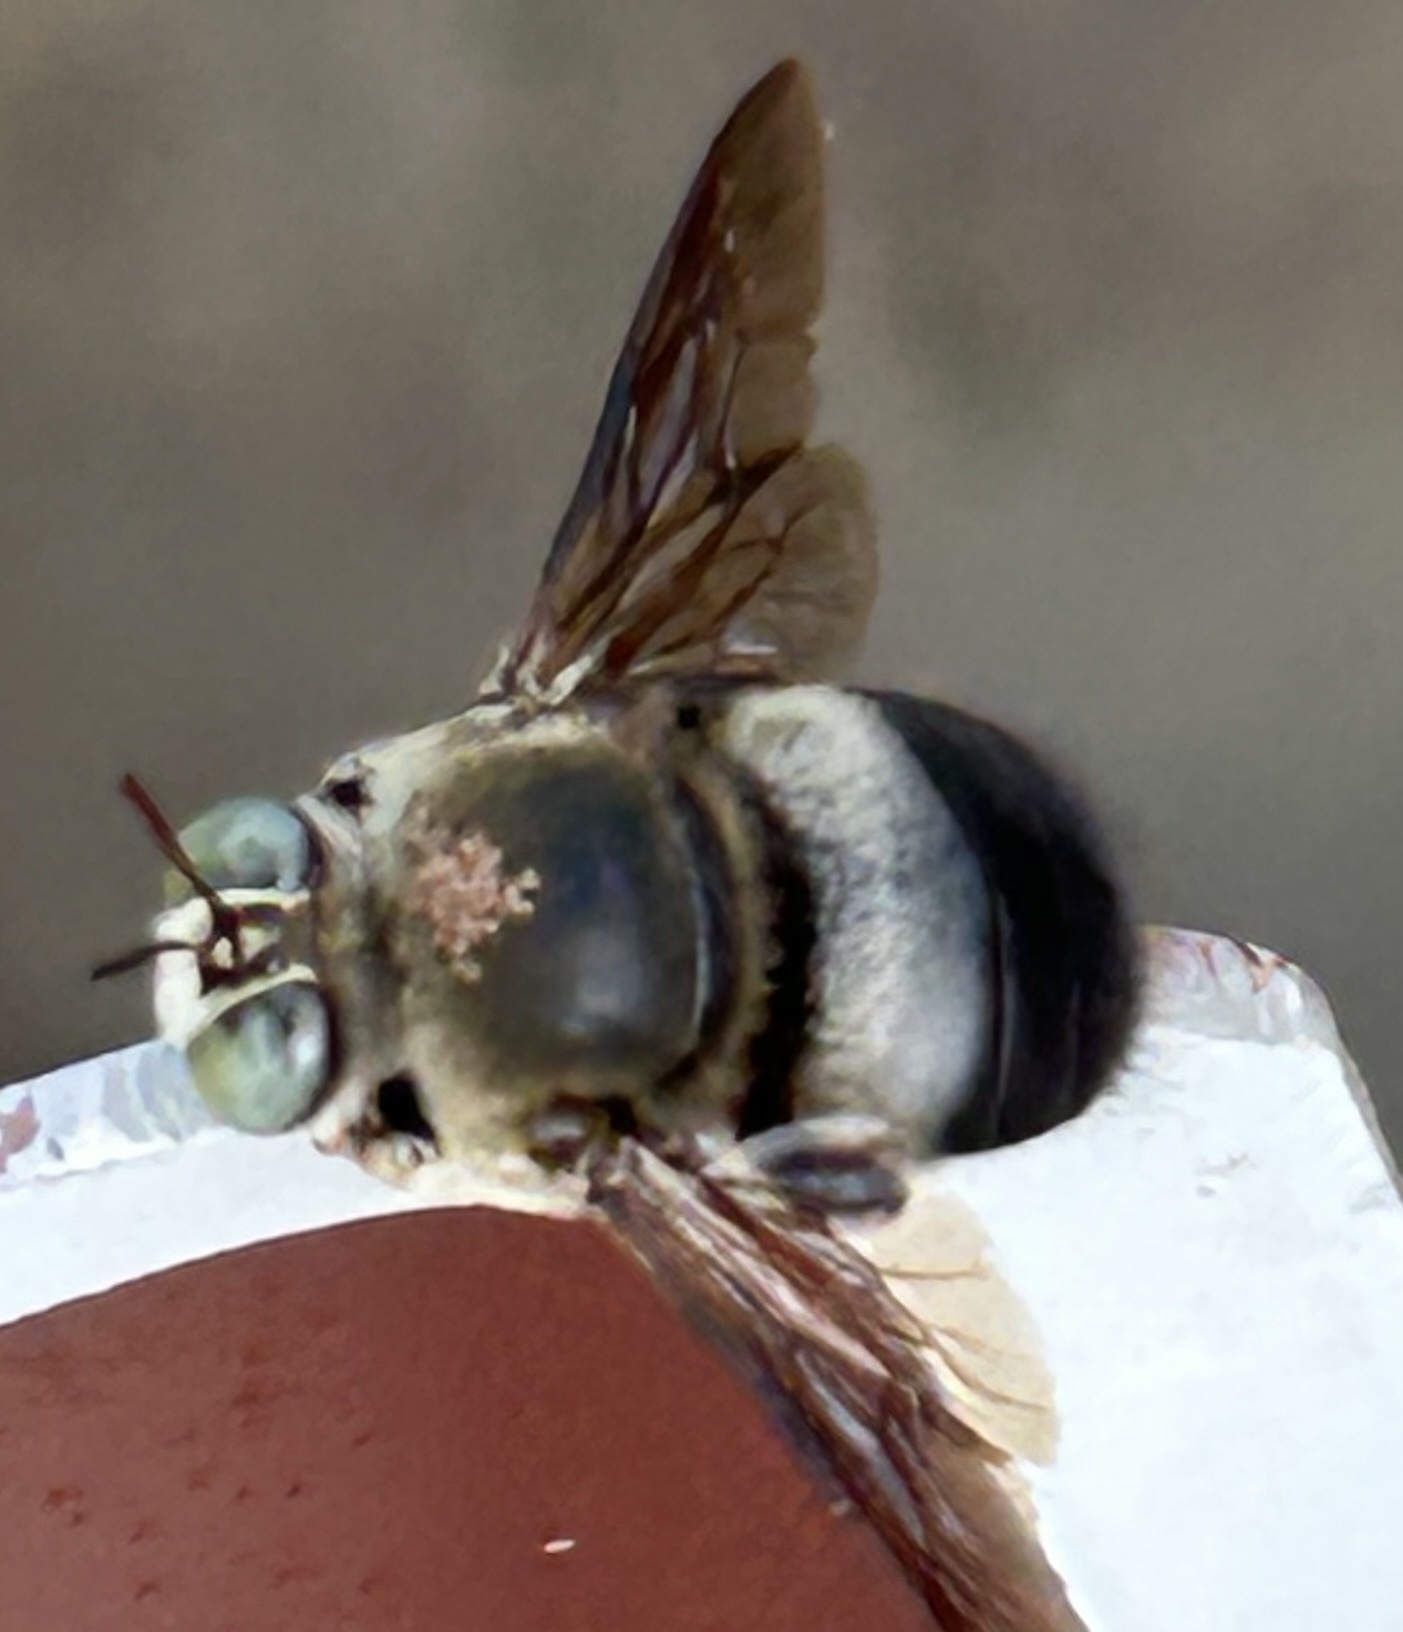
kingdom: Animalia
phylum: Arthropoda
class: Insecta
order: Hymenoptera
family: Apidae
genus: Xylocopa
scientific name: Xylocopa dejeanii
